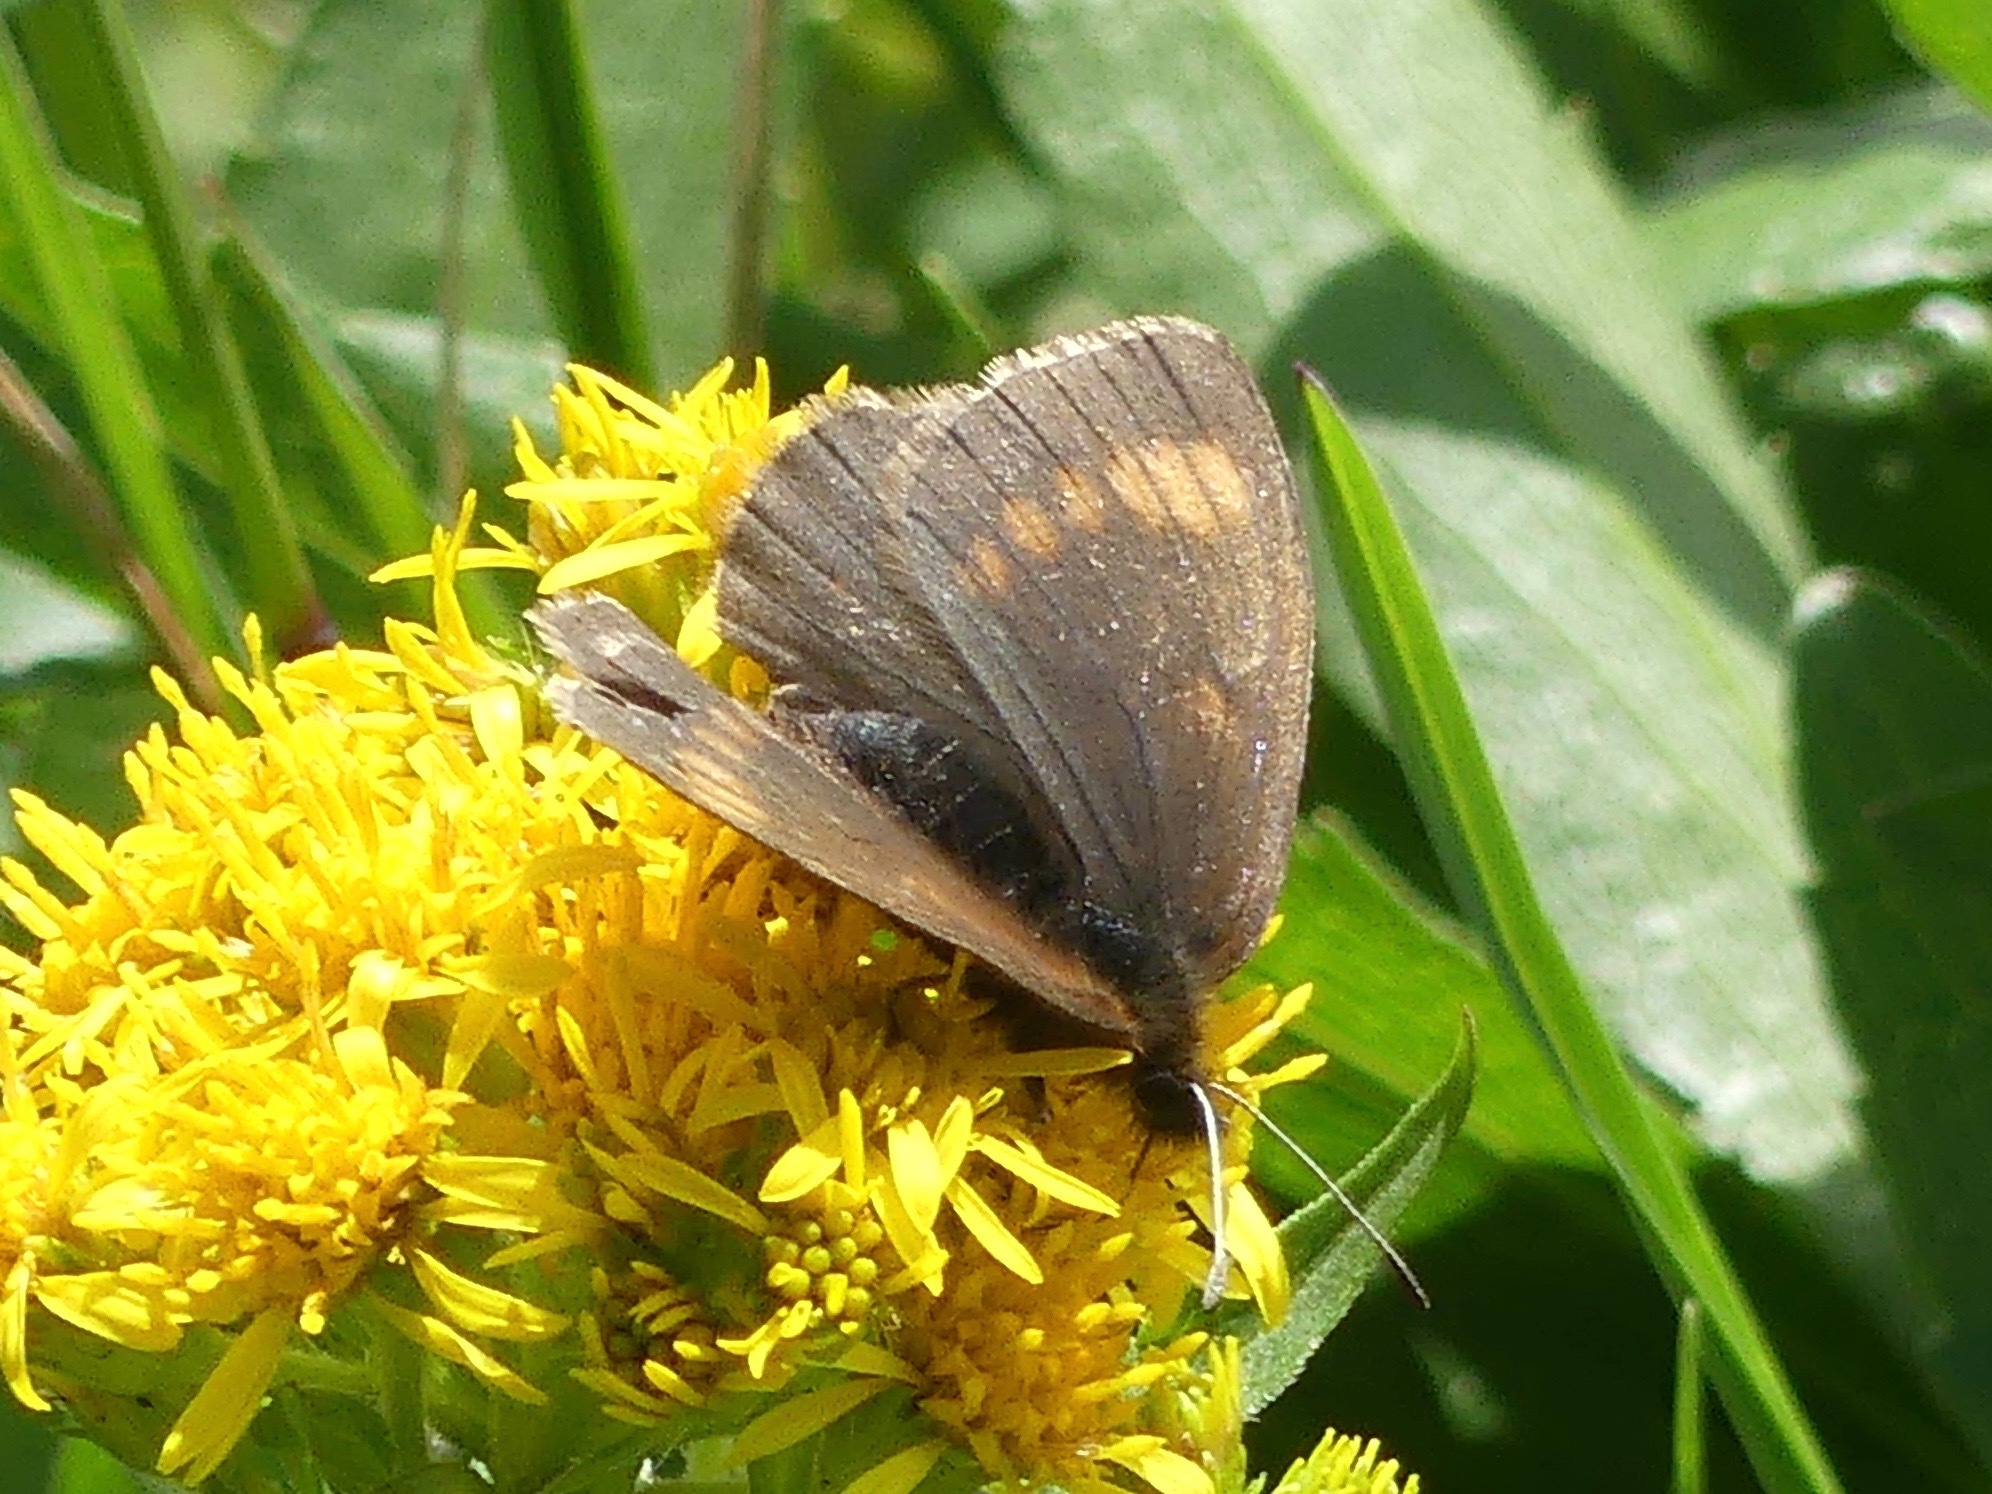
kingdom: Animalia
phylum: Arthropoda
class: Insecta
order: Lepidoptera
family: Nymphalidae
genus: Erebia
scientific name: Erebia pawloskii
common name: Theano alpine
